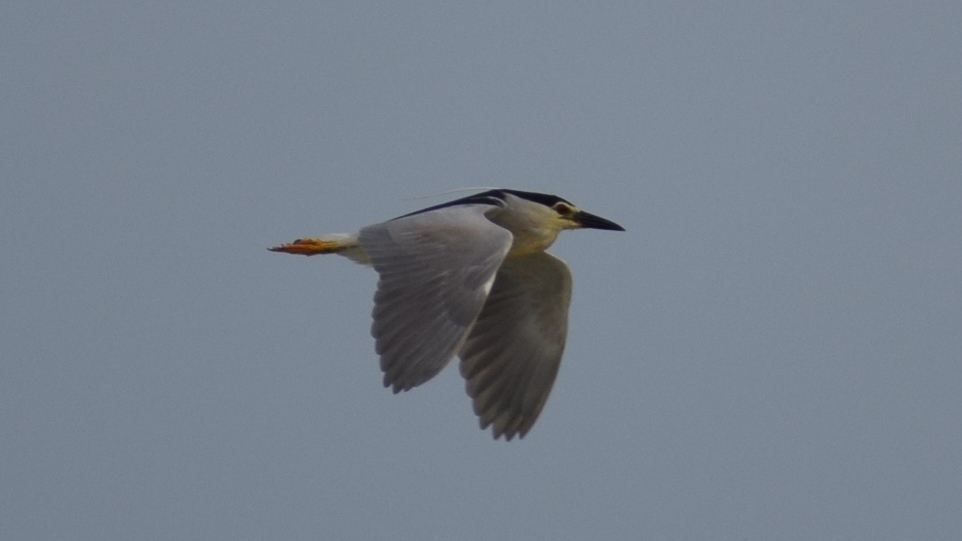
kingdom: Animalia
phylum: Chordata
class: Aves
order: Pelecaniformes
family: Ardeidae
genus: Nycticorax
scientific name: Nycticorax nycticorax
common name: Black-crowned night heron
